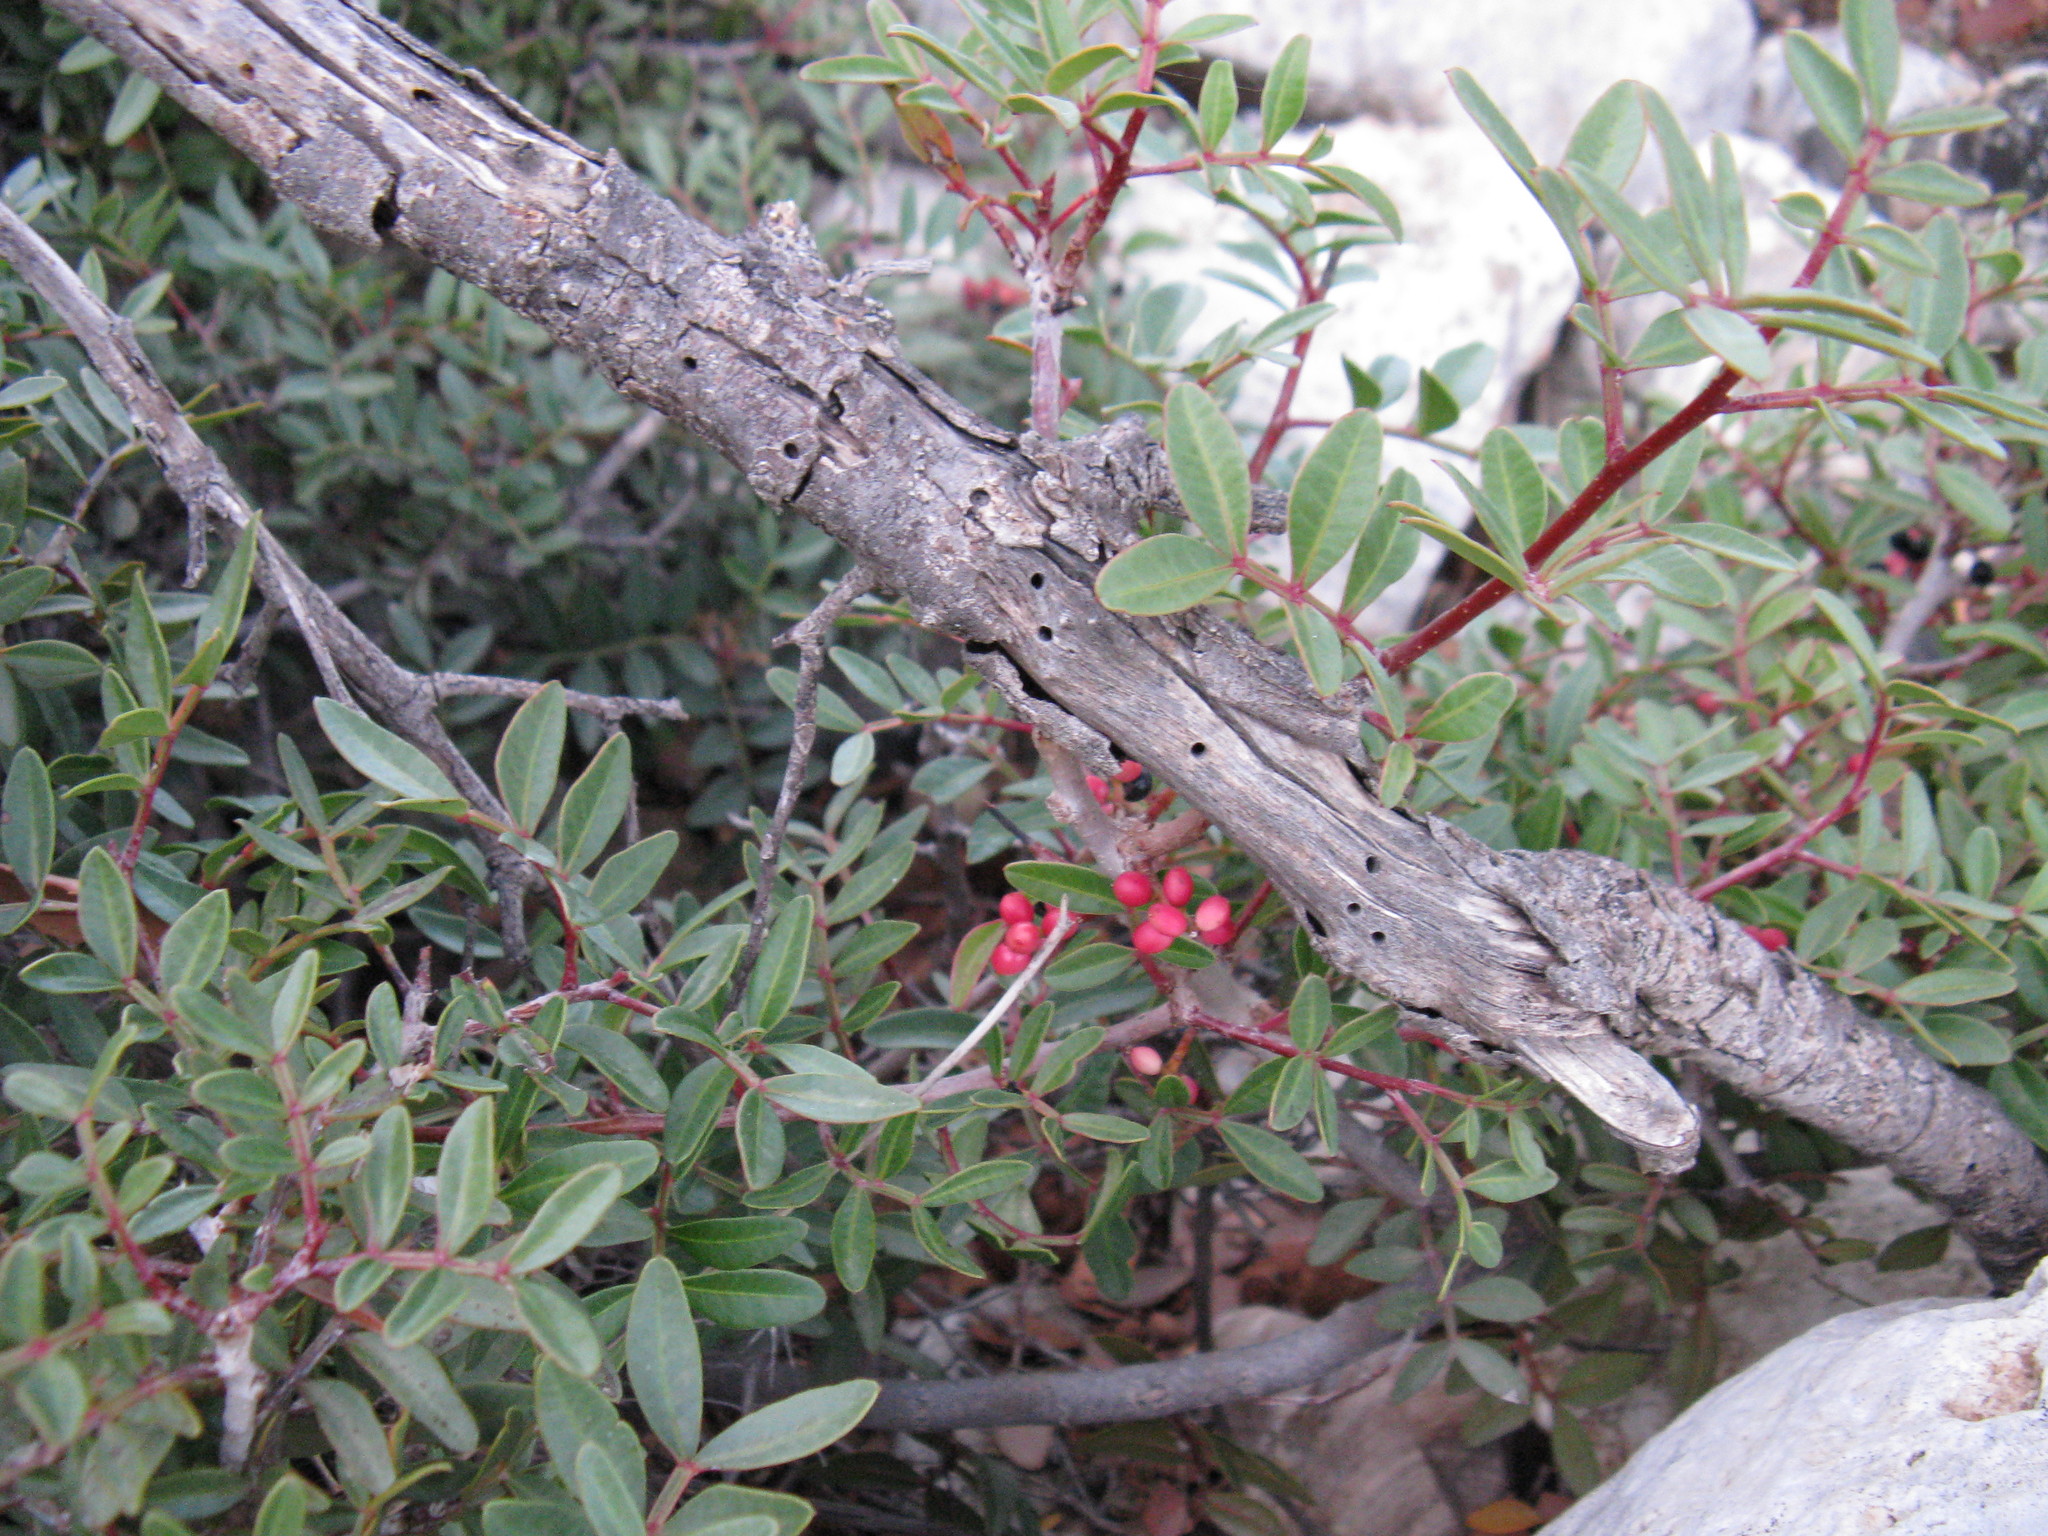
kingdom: Plantae
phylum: Tracheophyta
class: Magnoliopsida
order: Sapindales
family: Anacardiaceae
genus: Pistacia
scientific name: Pistacia lentiscus
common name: Lentisk
